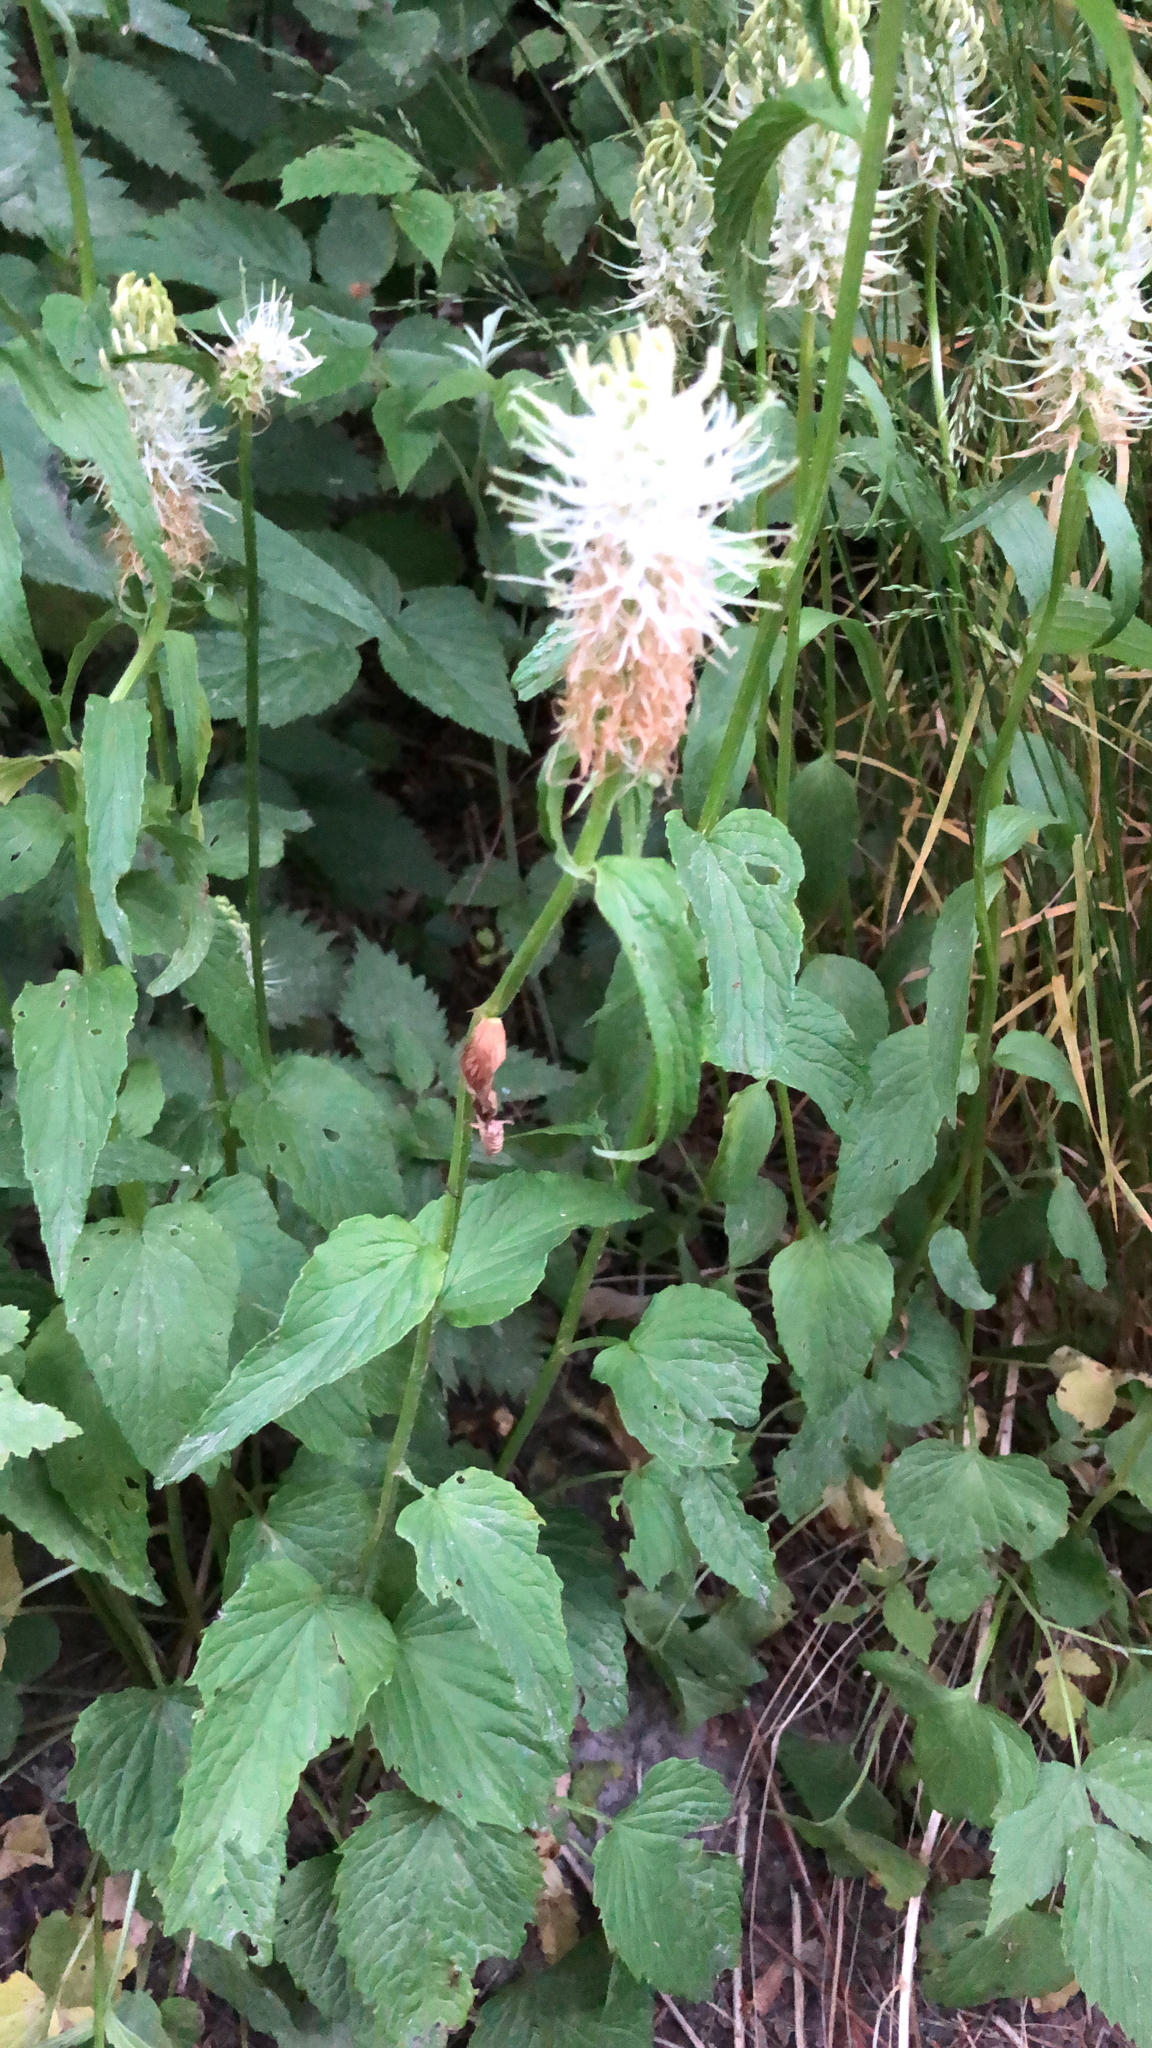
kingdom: Plantae
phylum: Tracheophyta
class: Magnoliopsida
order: Asterales
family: Campanulaceae
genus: Phyteuma
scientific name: Phyteuma spicatum
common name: Spiked rampion
